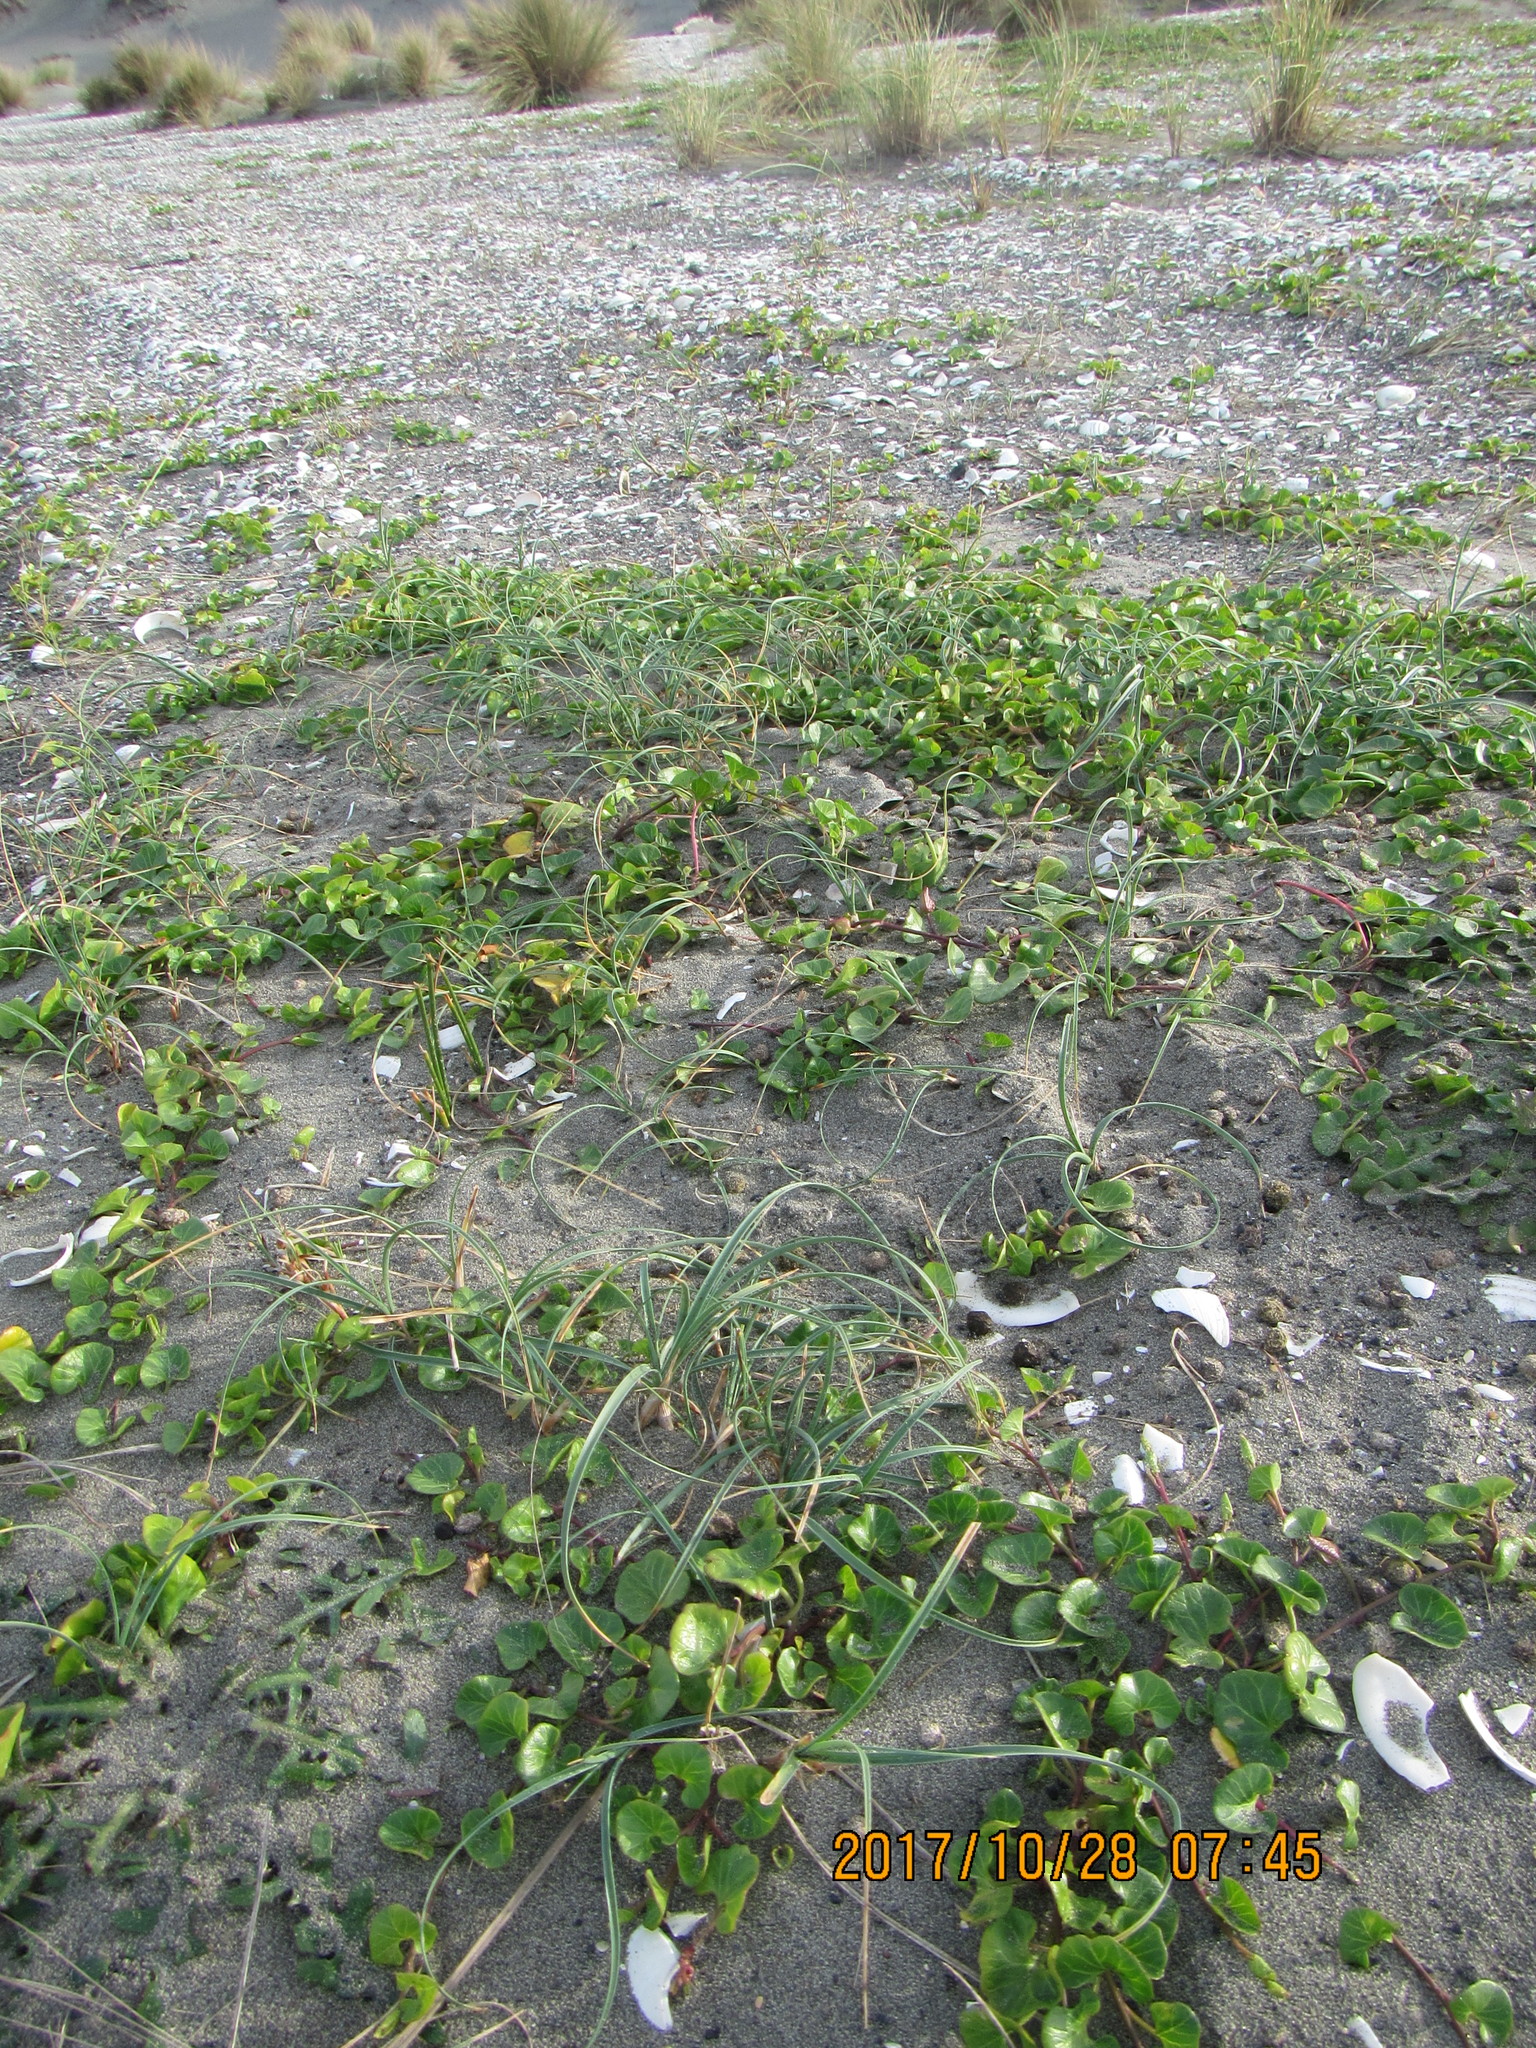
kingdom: Plantae
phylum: Tracheophyta
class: Magnoliopsida
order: Solanales
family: Convolvulaceae
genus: Calystegia
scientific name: Calystegia soldanella
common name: Sea bindweed
